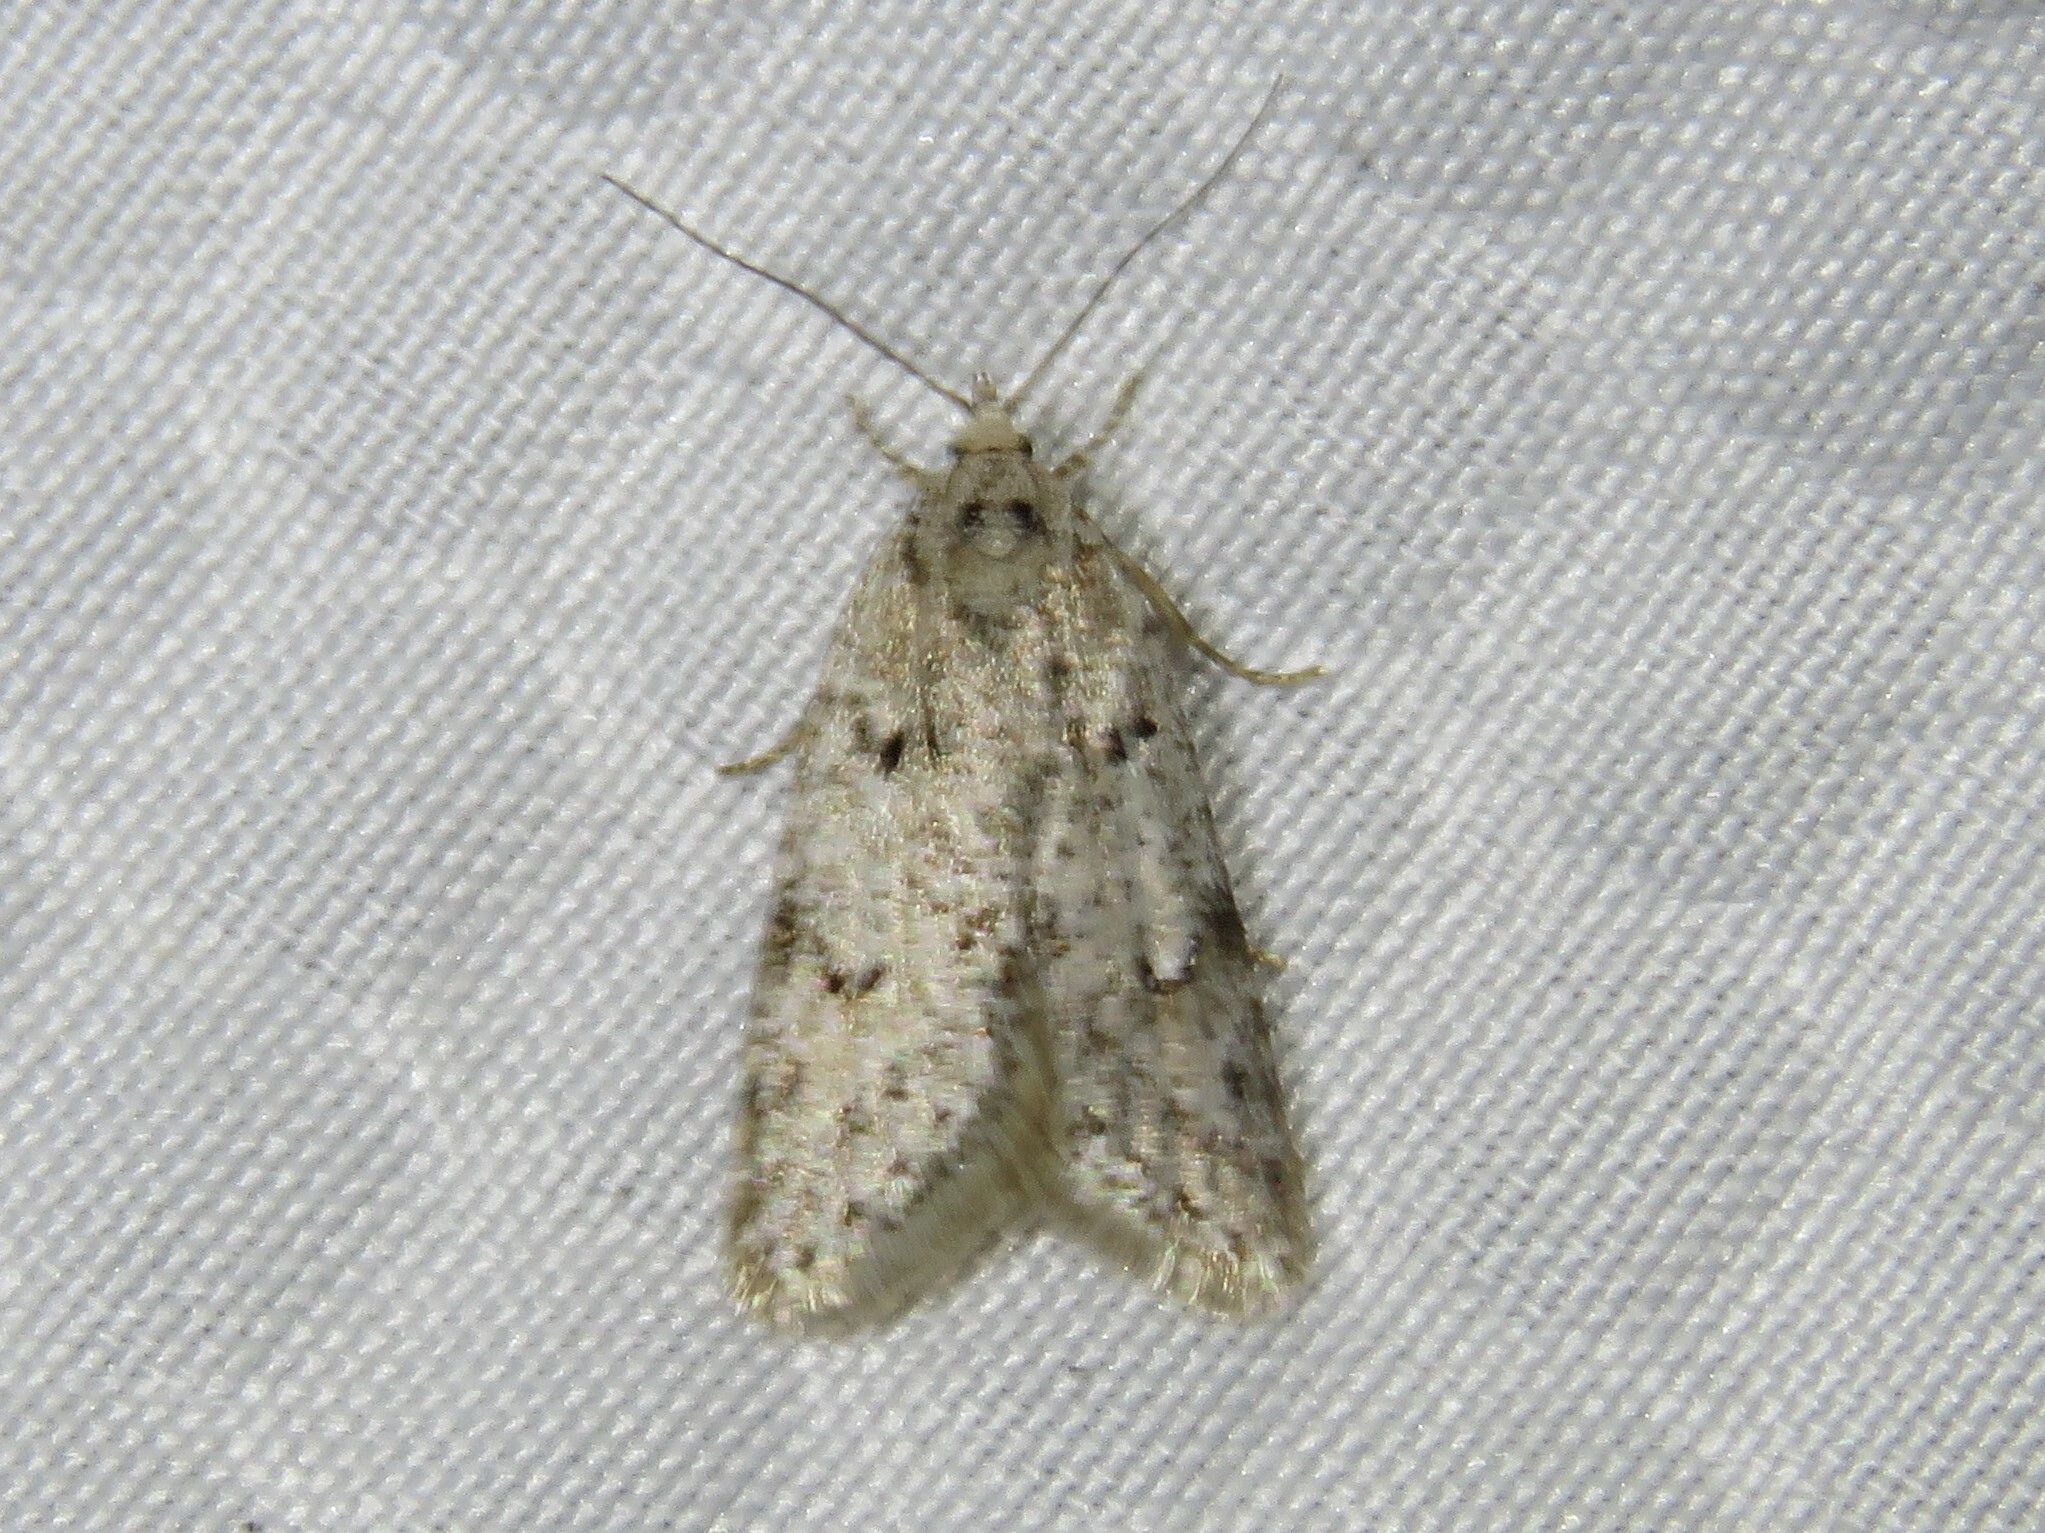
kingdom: Animalia
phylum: Arthropoda
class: Insecta
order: Lepidoptera
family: Depressariidae
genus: Semioscopis
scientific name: Semioscopis megamicrella
